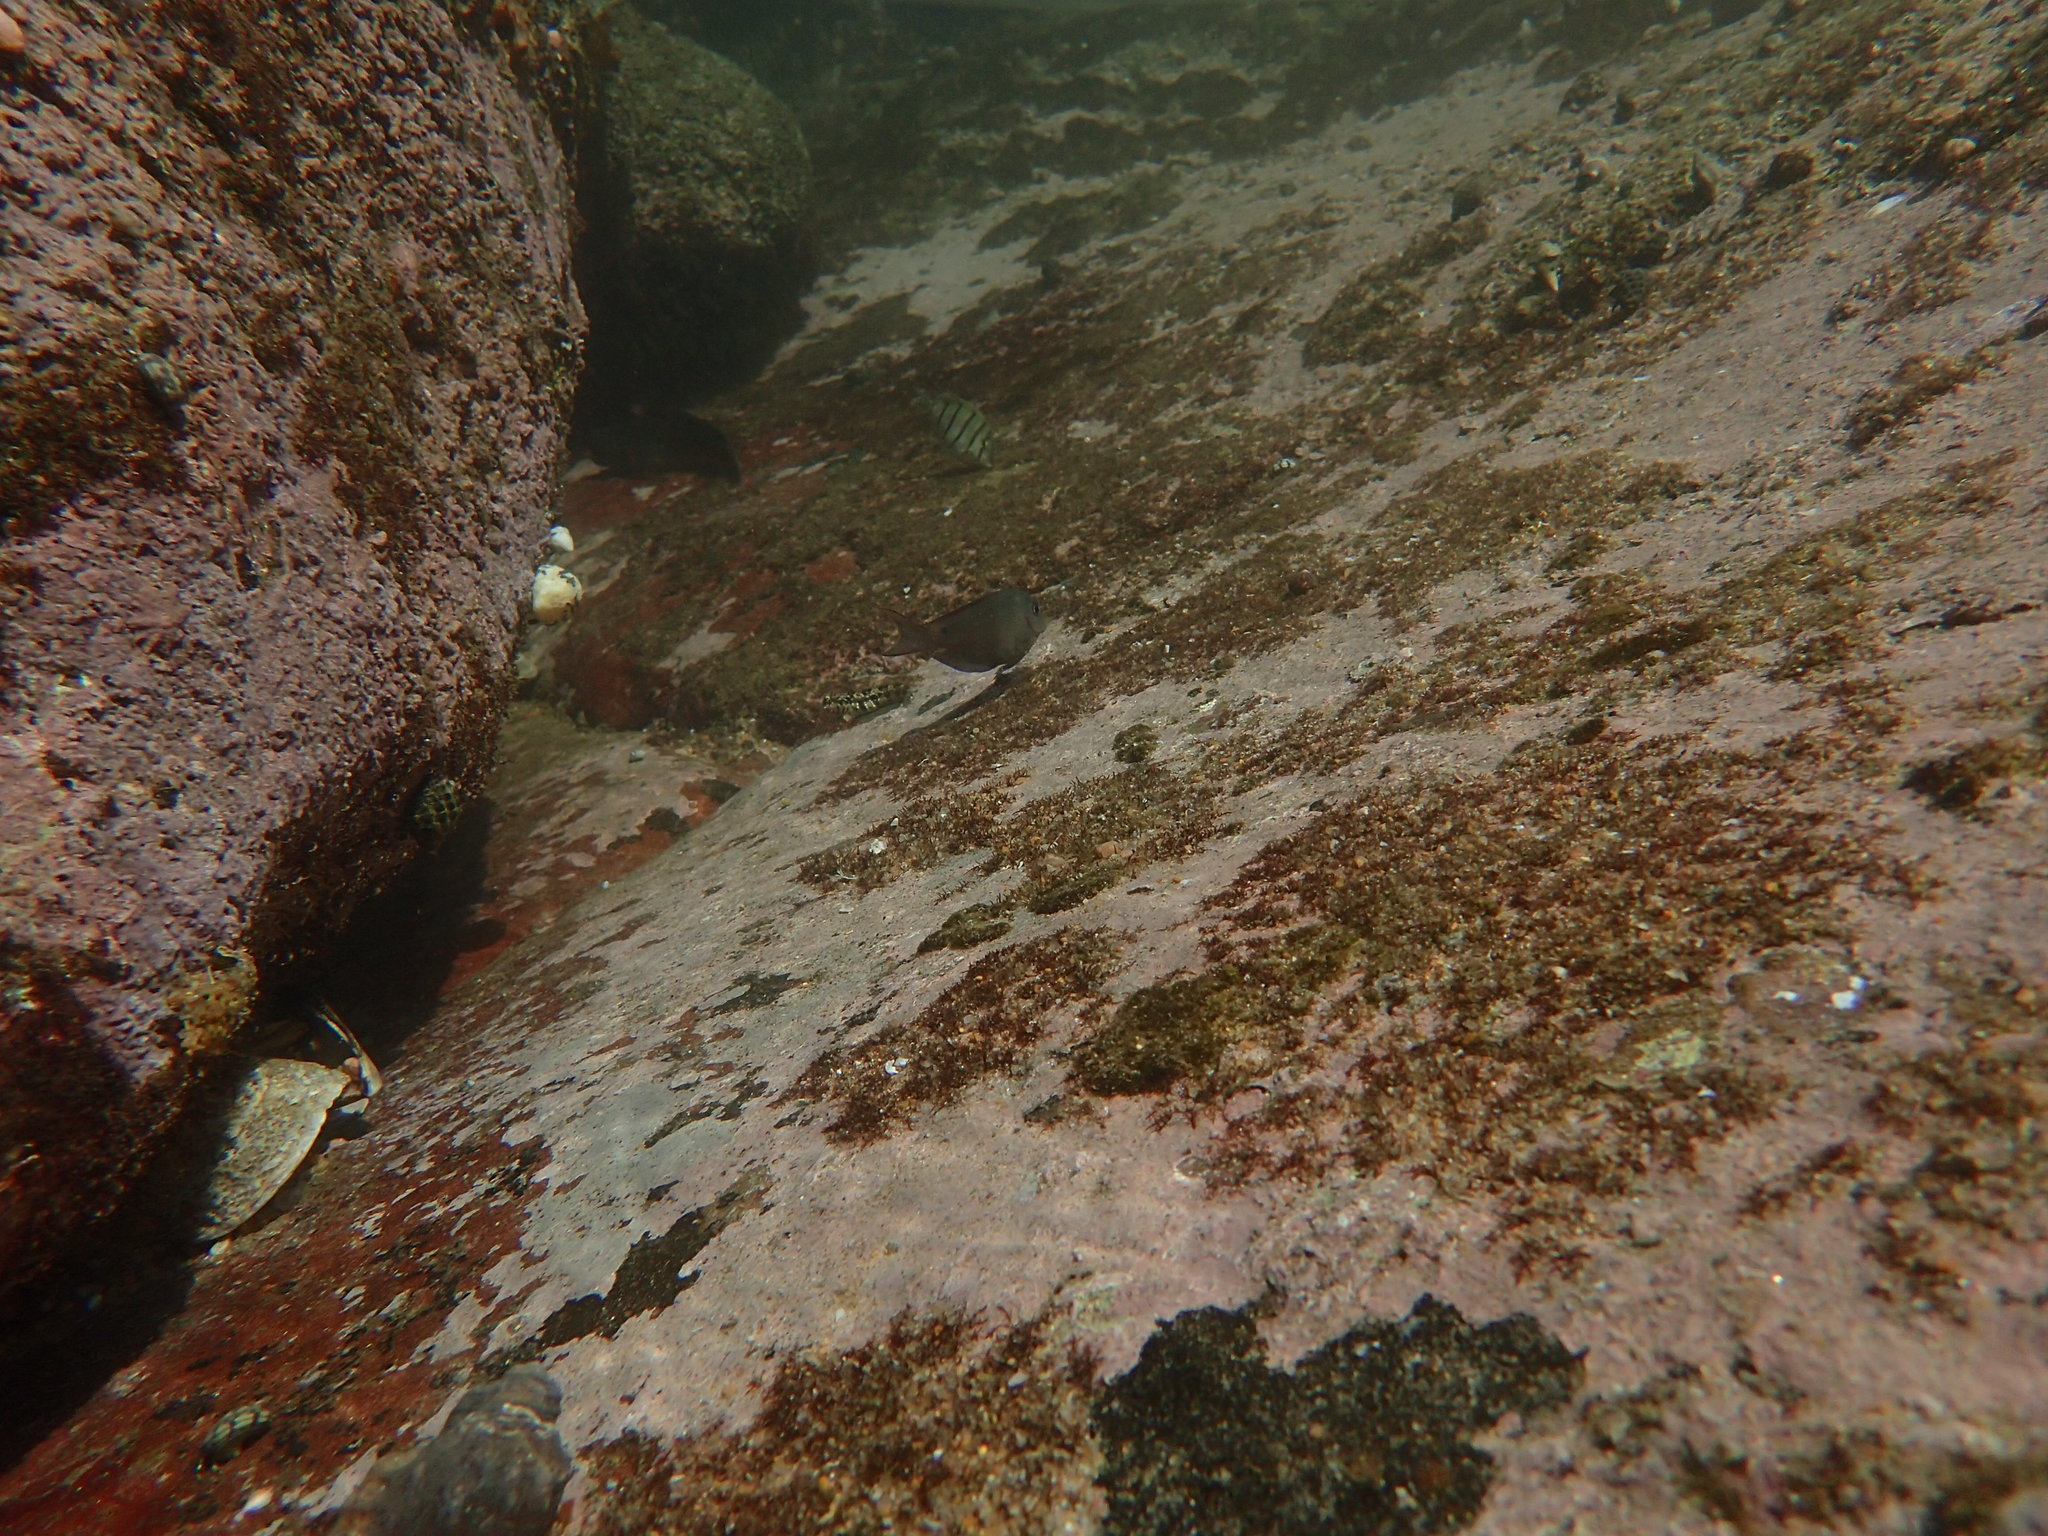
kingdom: Animalia
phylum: Chordata
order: Perciformes
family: Acanthuridae
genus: Acanthurus
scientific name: Acanthurus nigrofuscus
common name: Blackspot surgeonfish
